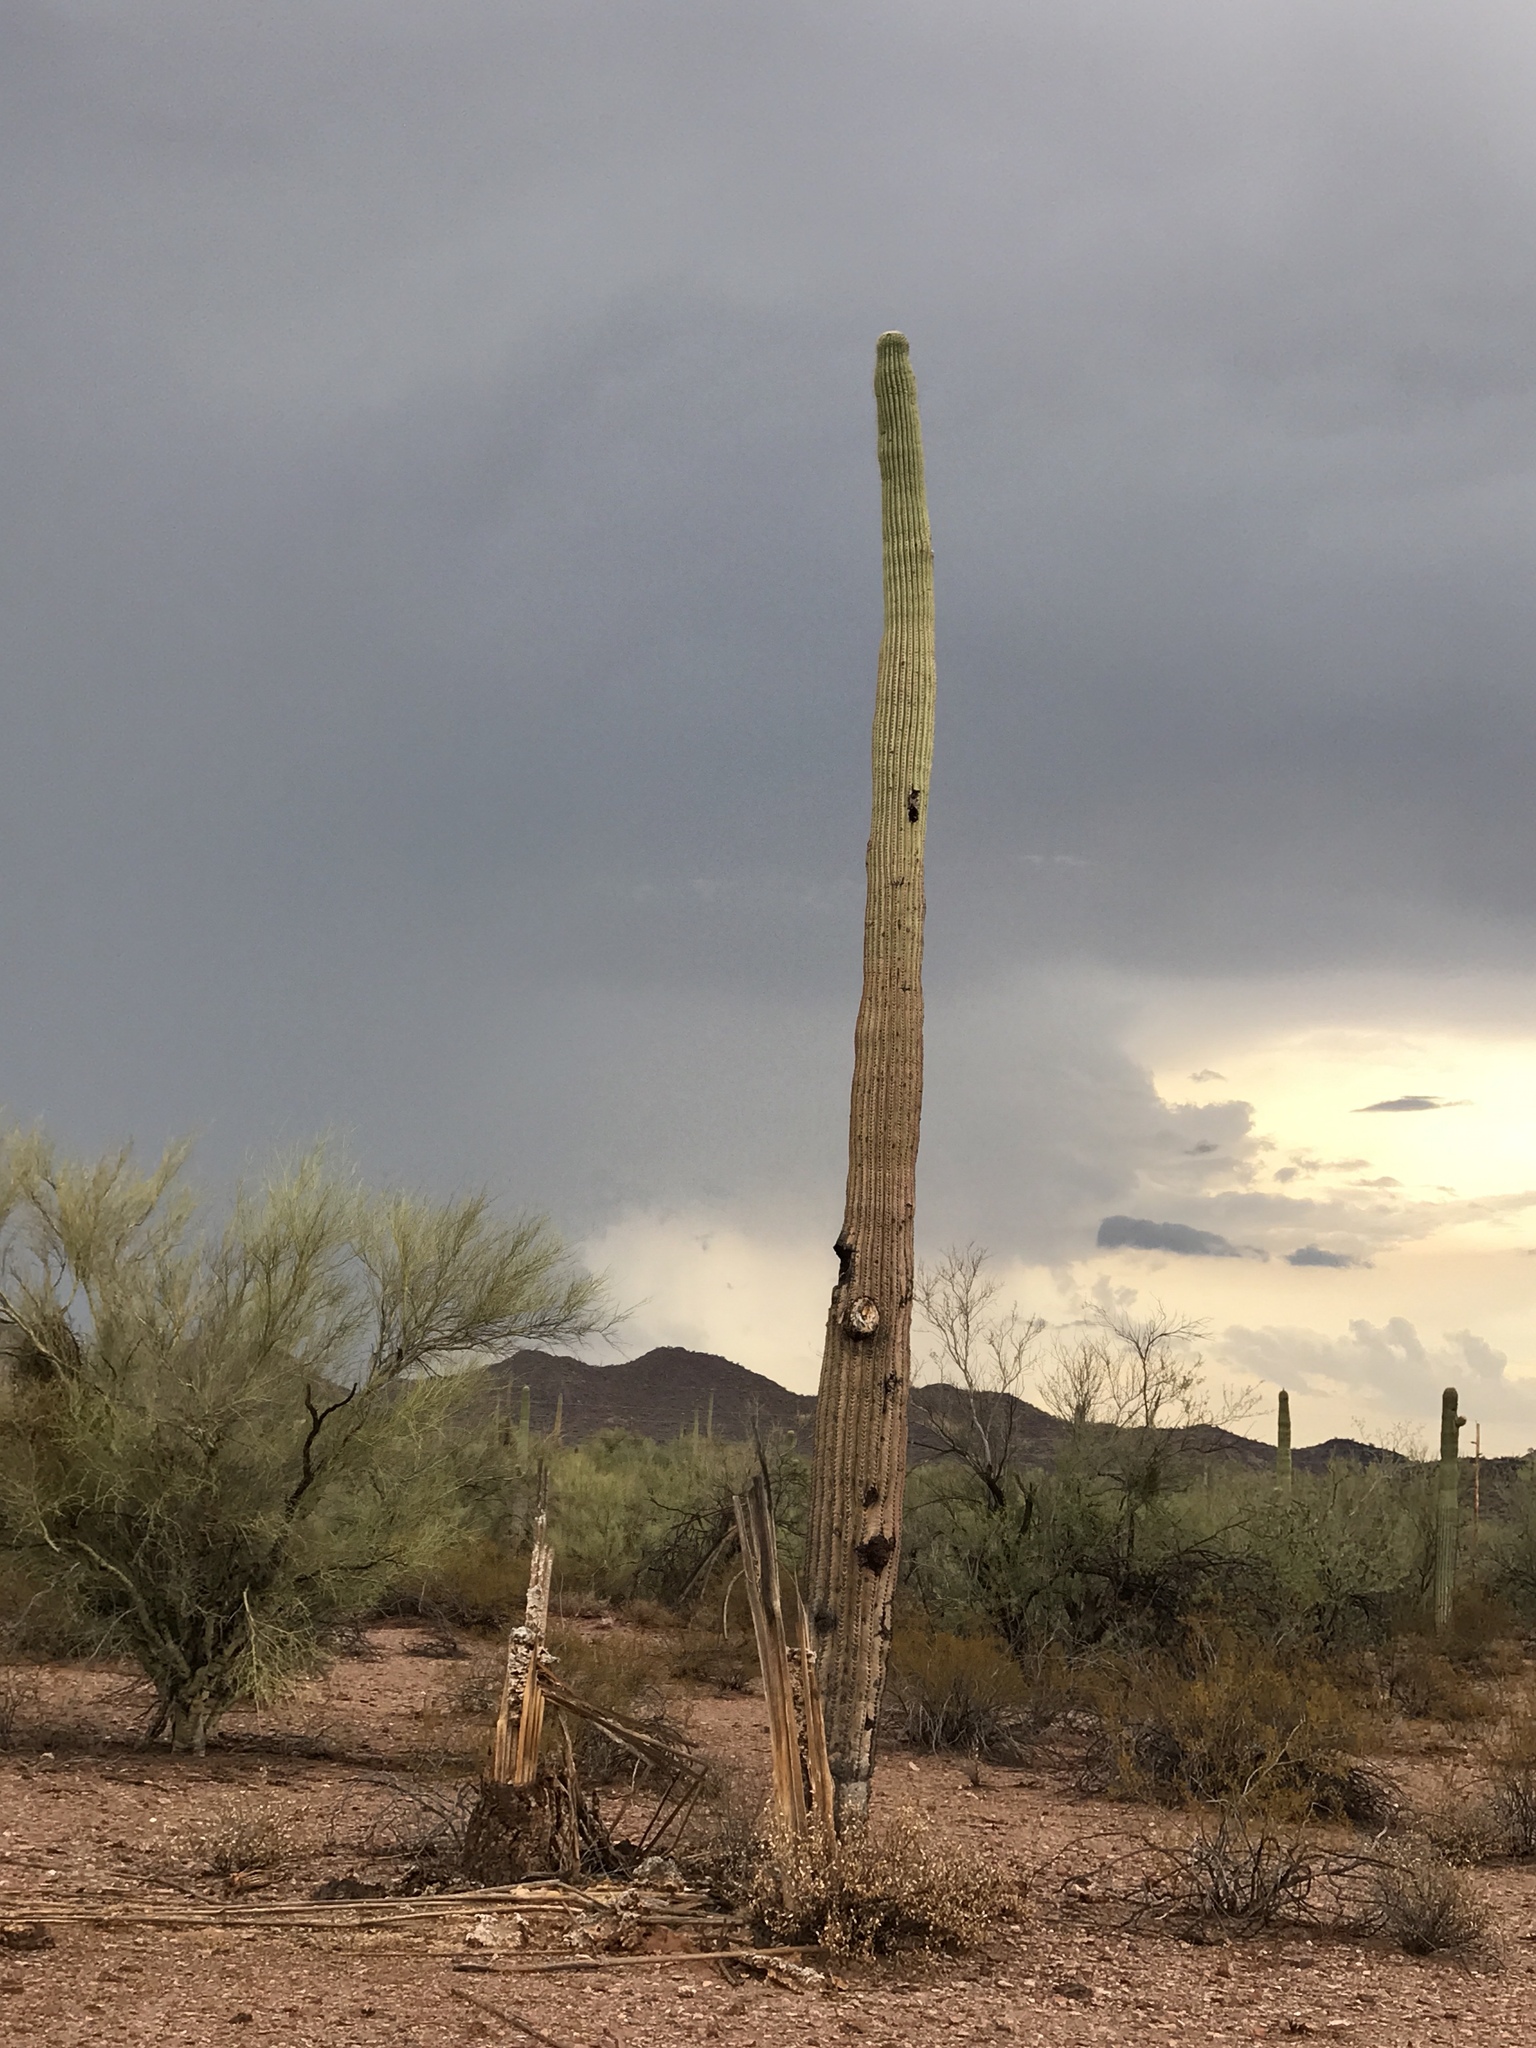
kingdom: Plantae
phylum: Tracheophyta
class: Magnoliopsida
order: Caryophyllales
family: Cactaceae
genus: Carnegiea
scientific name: Carnegiea gigantea
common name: Saguaro
